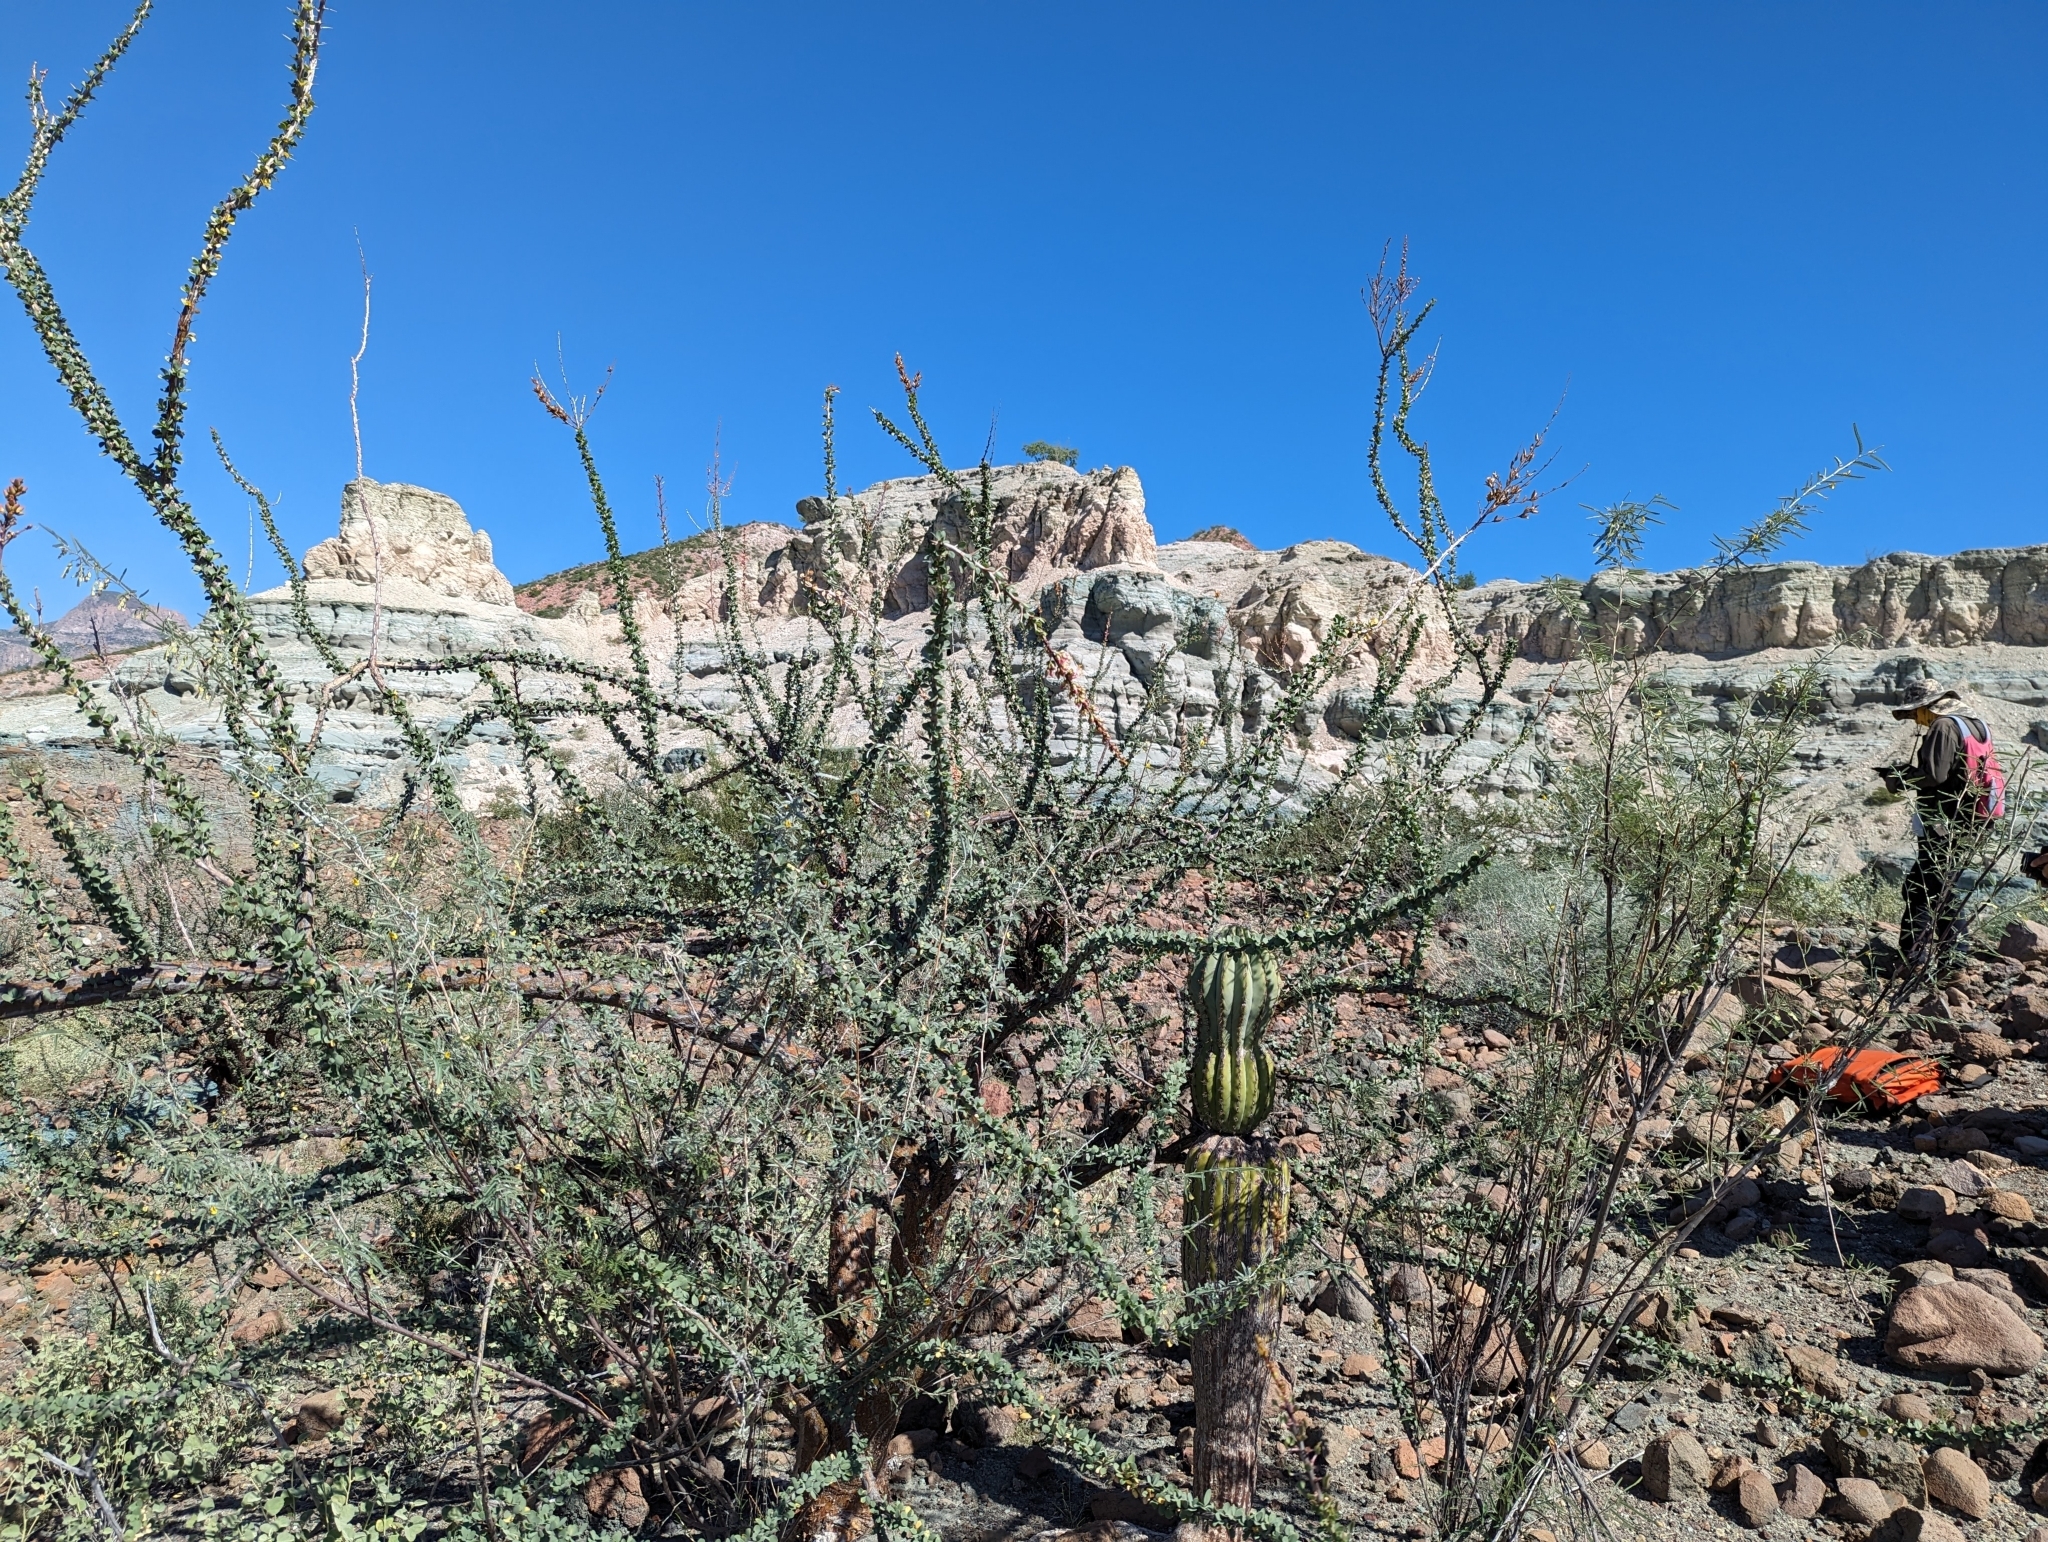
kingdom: Plantae
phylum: Tracheophyta
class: Magnoliopsida
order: Ericales
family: Fouquieriaceae
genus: Fouquieria
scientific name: Fouquieria burragei
